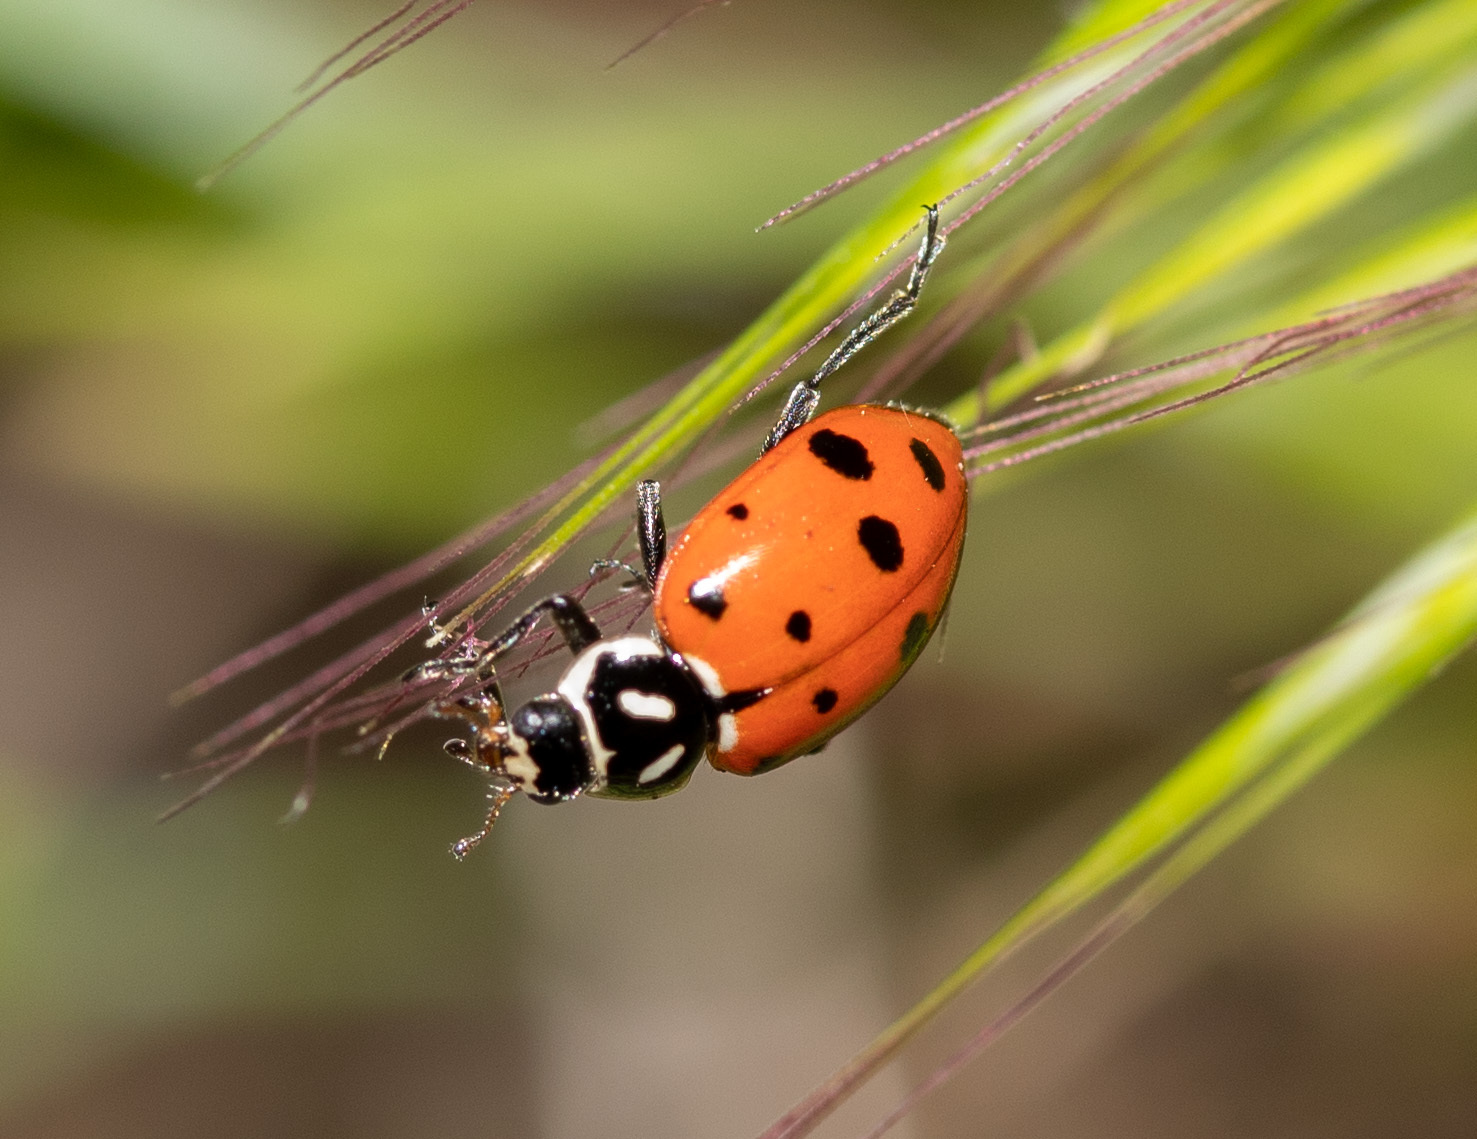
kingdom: Animalia
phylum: Arthropoda
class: Insecta
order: Coleoptera
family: Coccinellidae
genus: Hippodamia
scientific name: Hippodamia convergens
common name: Convergent lady beetle
